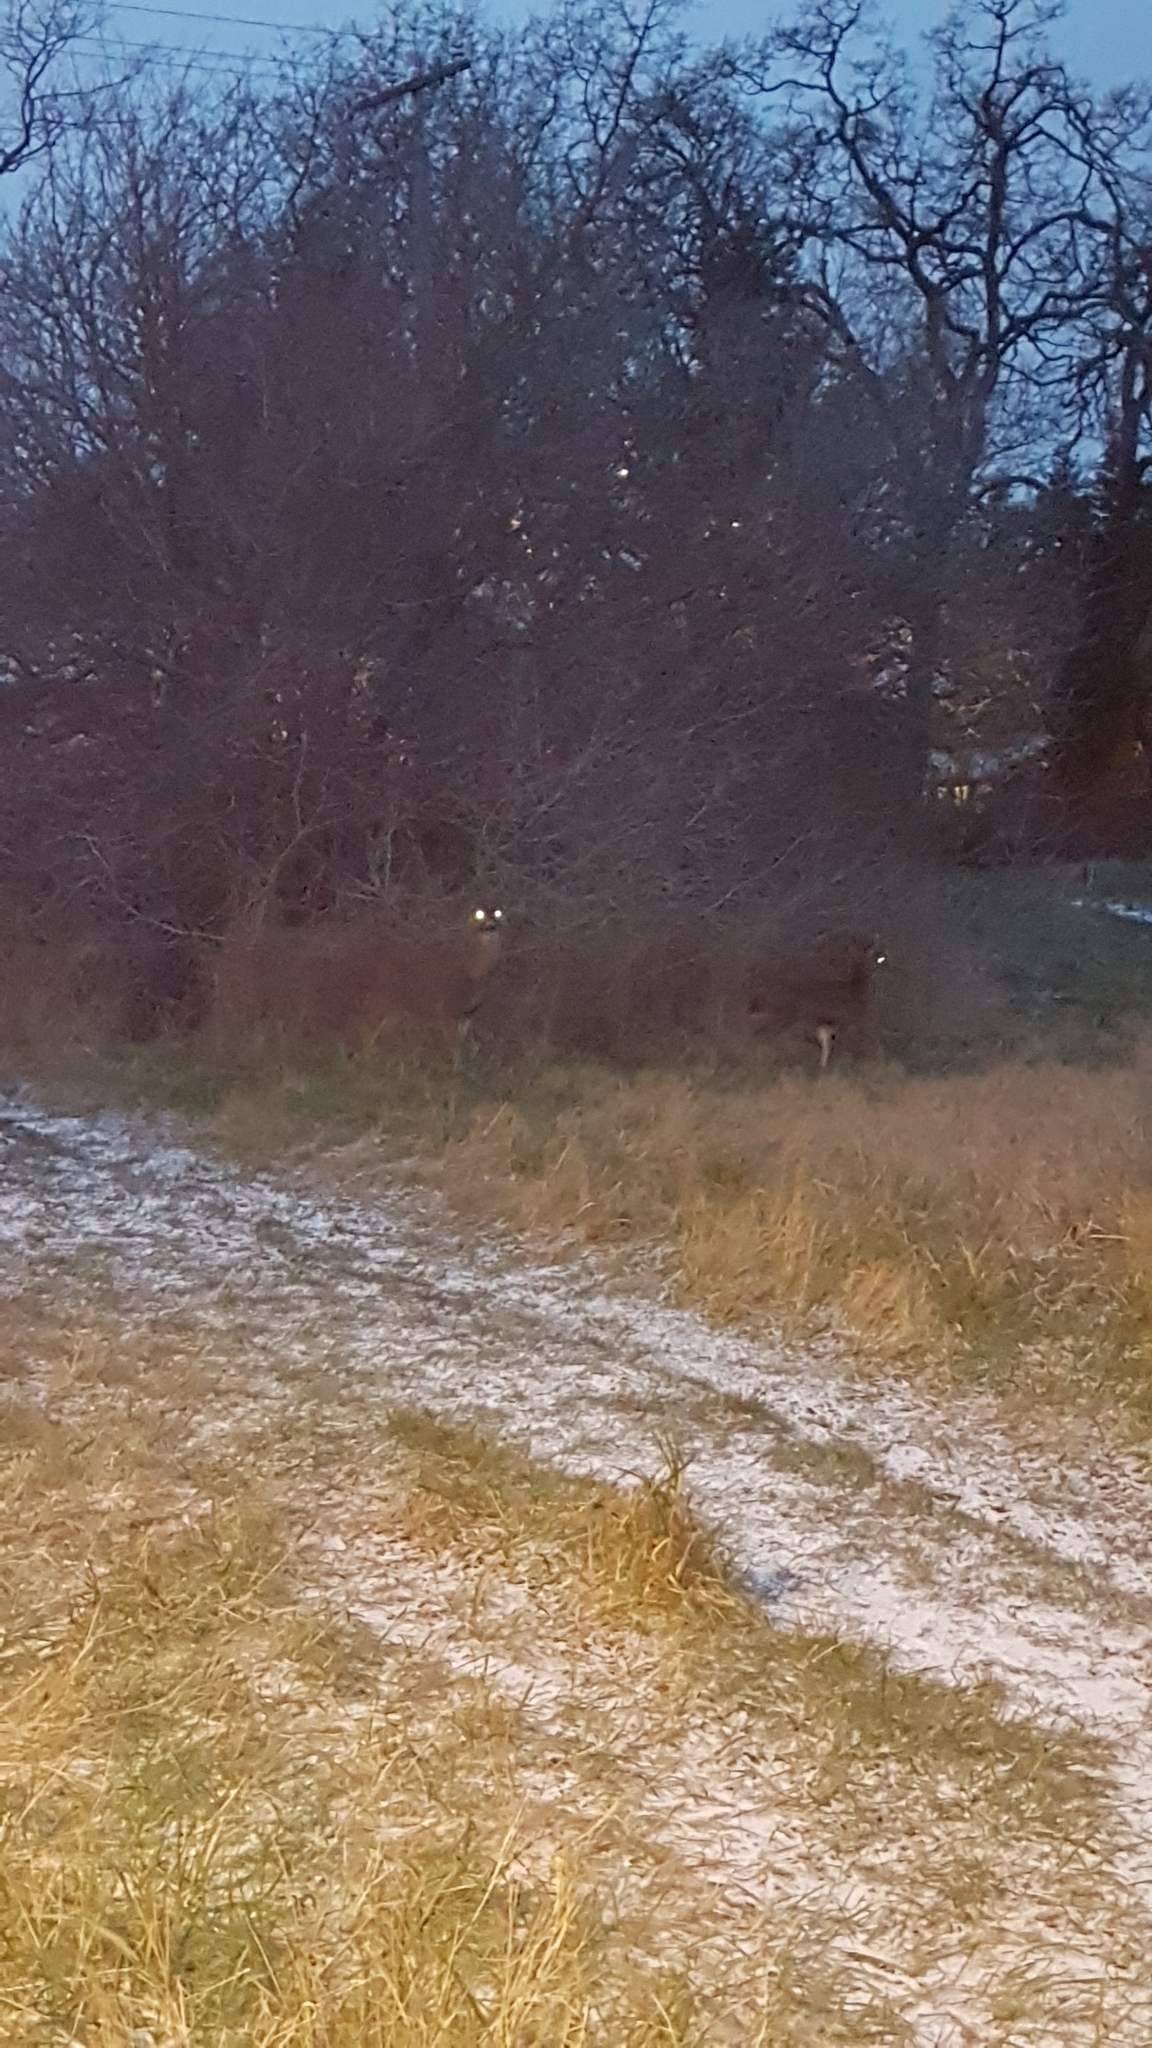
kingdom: Animalia
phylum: Chordata
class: Mammalia
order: Artiodactyla
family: Cervidae
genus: Odocoileus
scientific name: Odocoileus hemionus
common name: Mule deer
